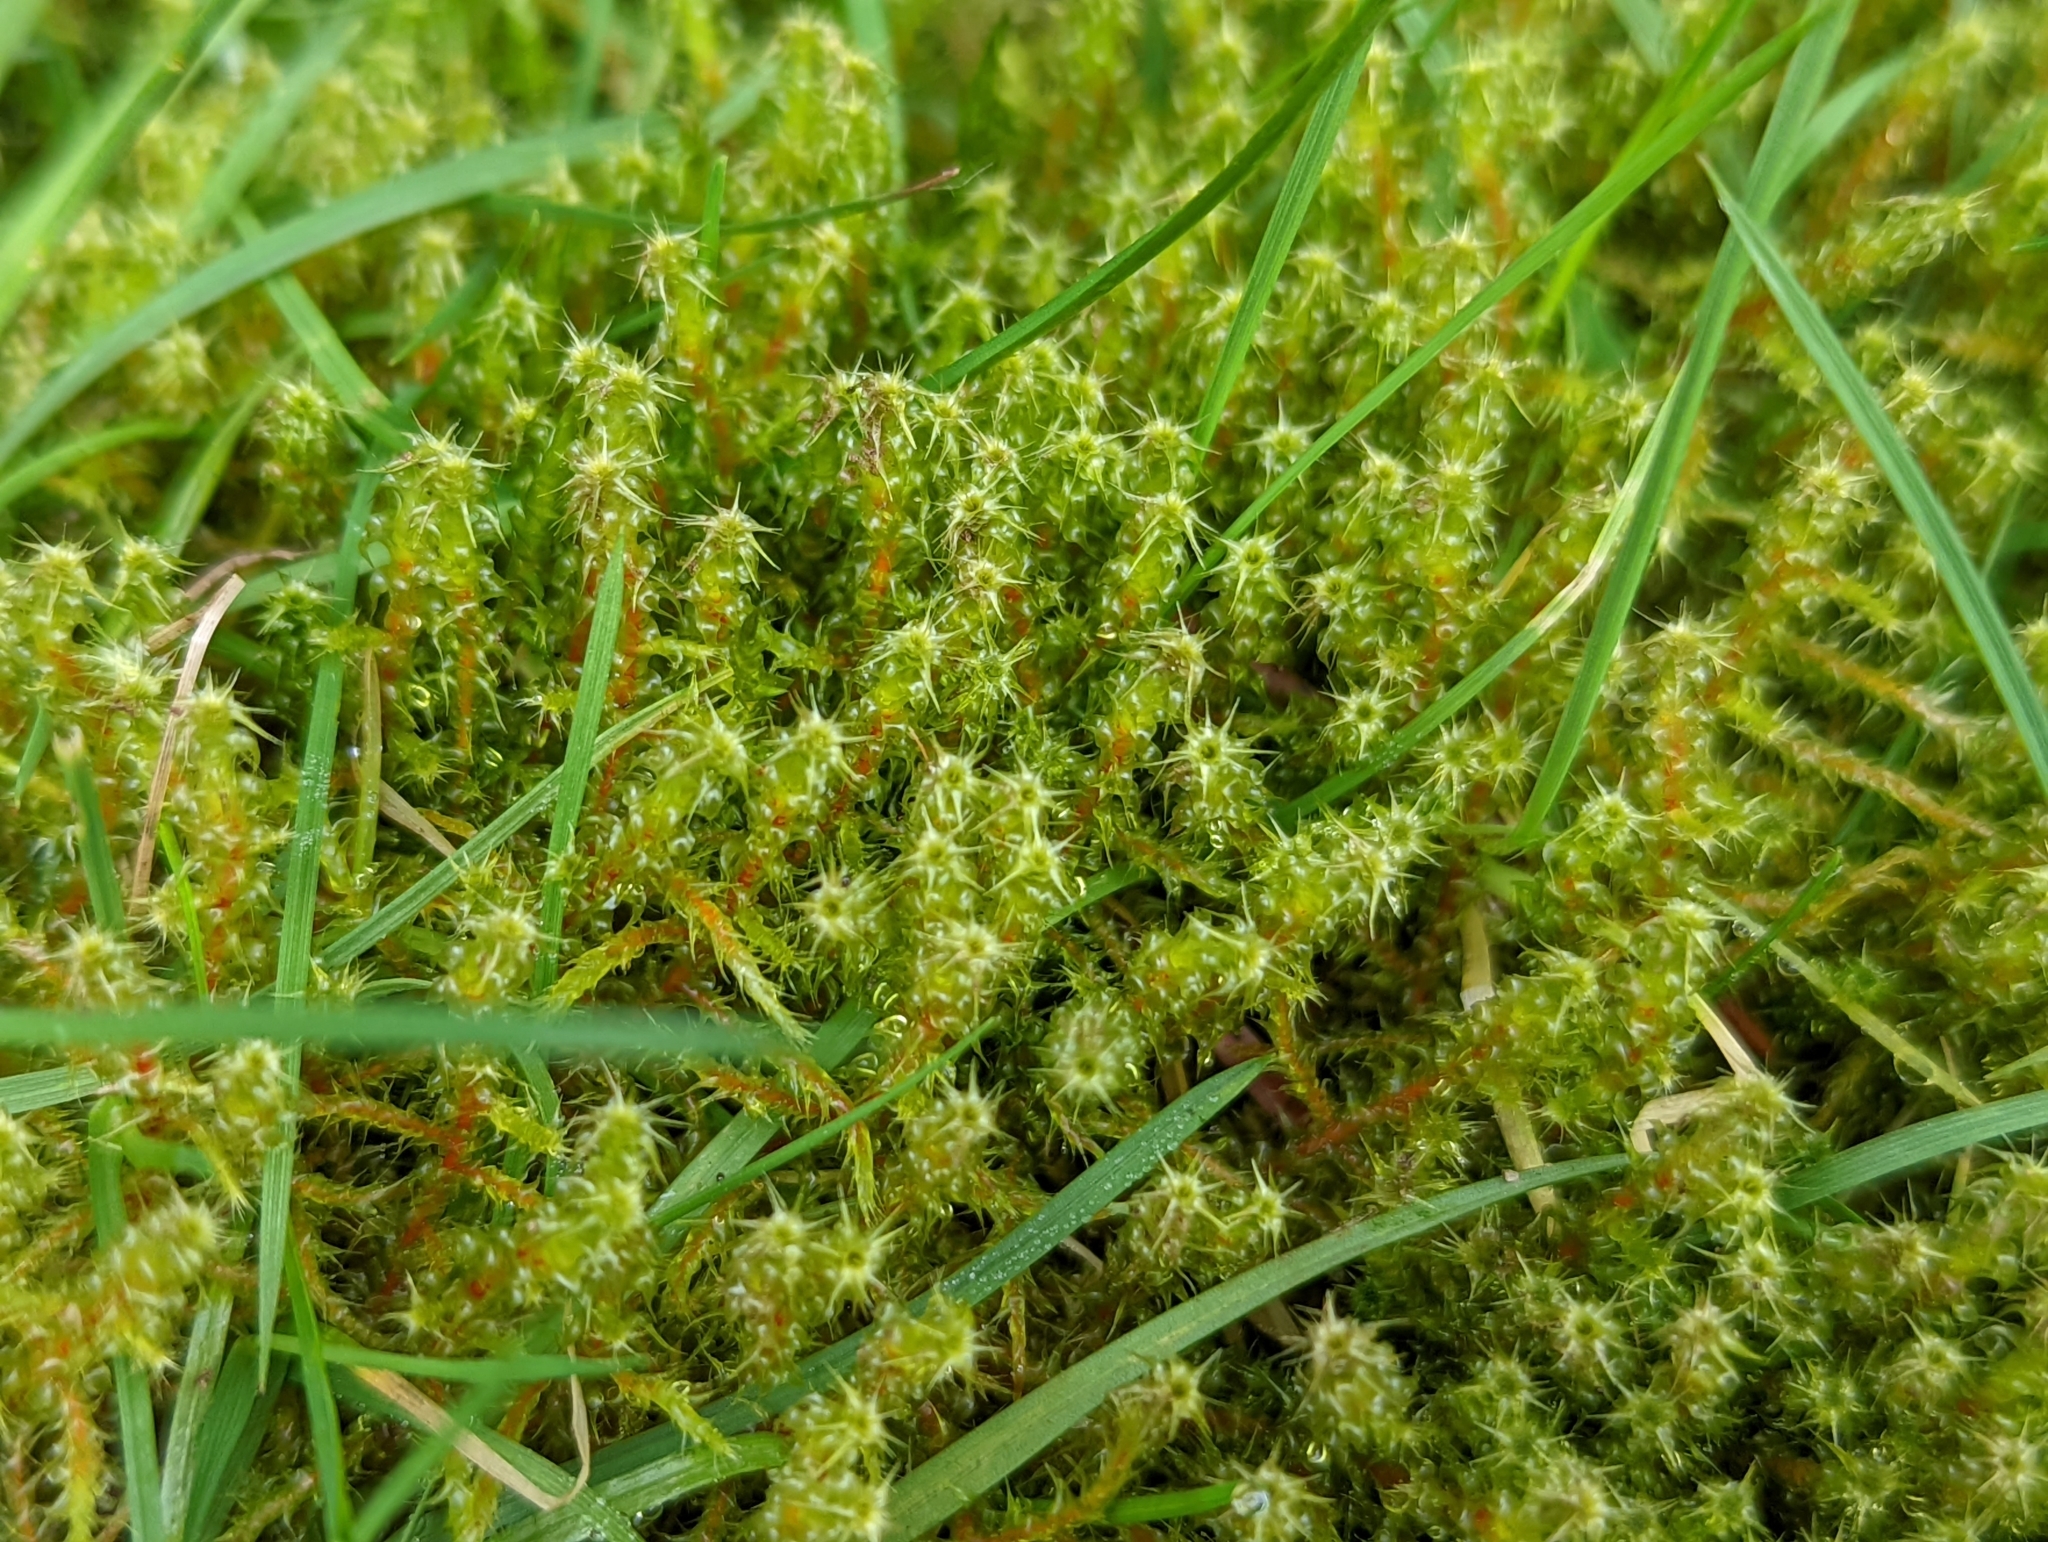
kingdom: Plantae
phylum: Bryophyta
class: Bryopsida
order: Hypnales
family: Hylocomiaceae
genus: Rhytidiadelphus
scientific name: Rhytidiadelphus squarrosus
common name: Springy turf-moss
